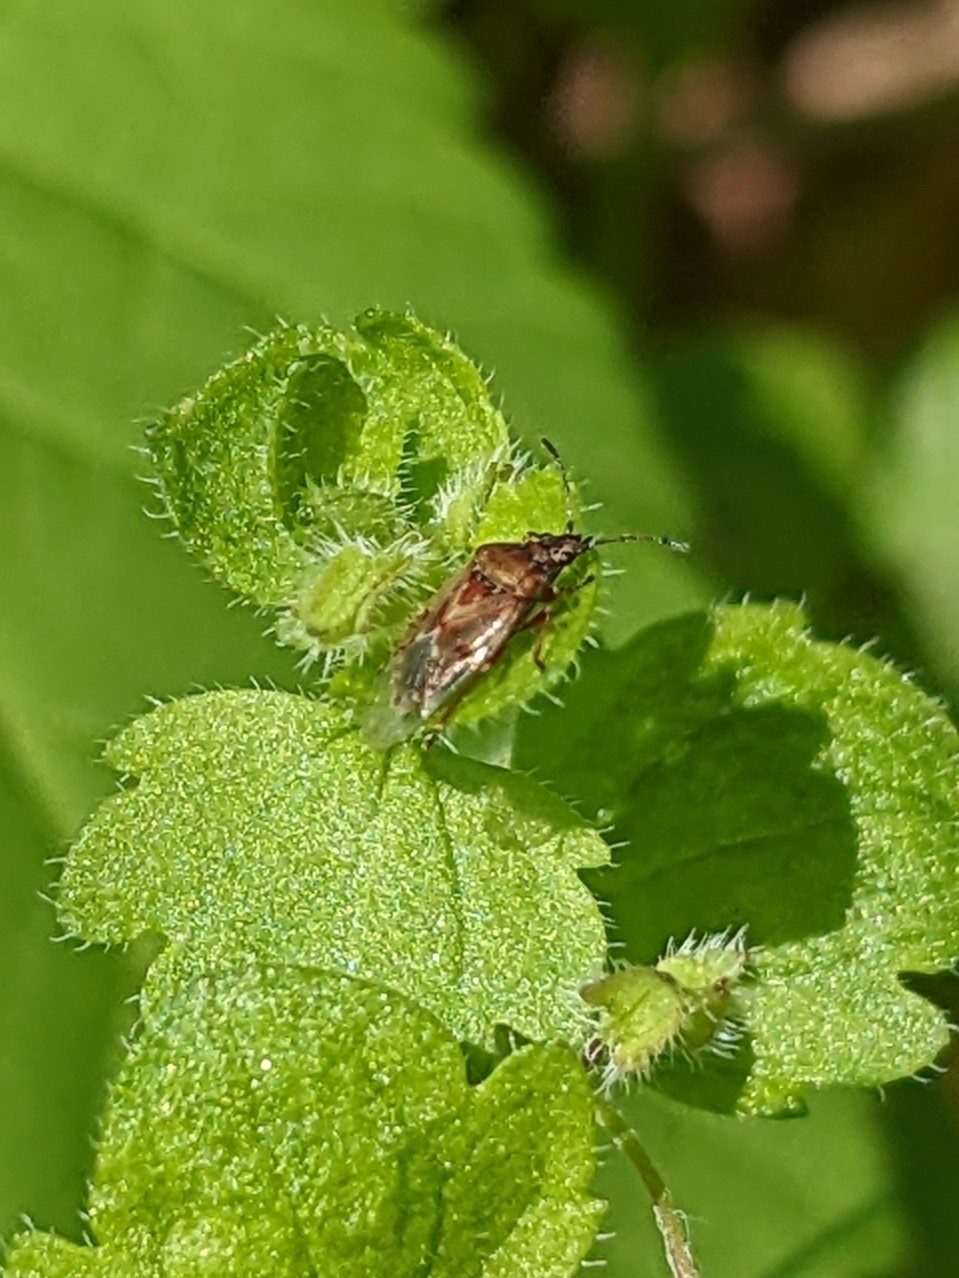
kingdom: Animalia
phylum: Arthropoda
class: Insecta
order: Hemiptera
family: Lygaeidae
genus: Kleidocerys
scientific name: Kleidocerys resedae
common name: Birch catkin bug
